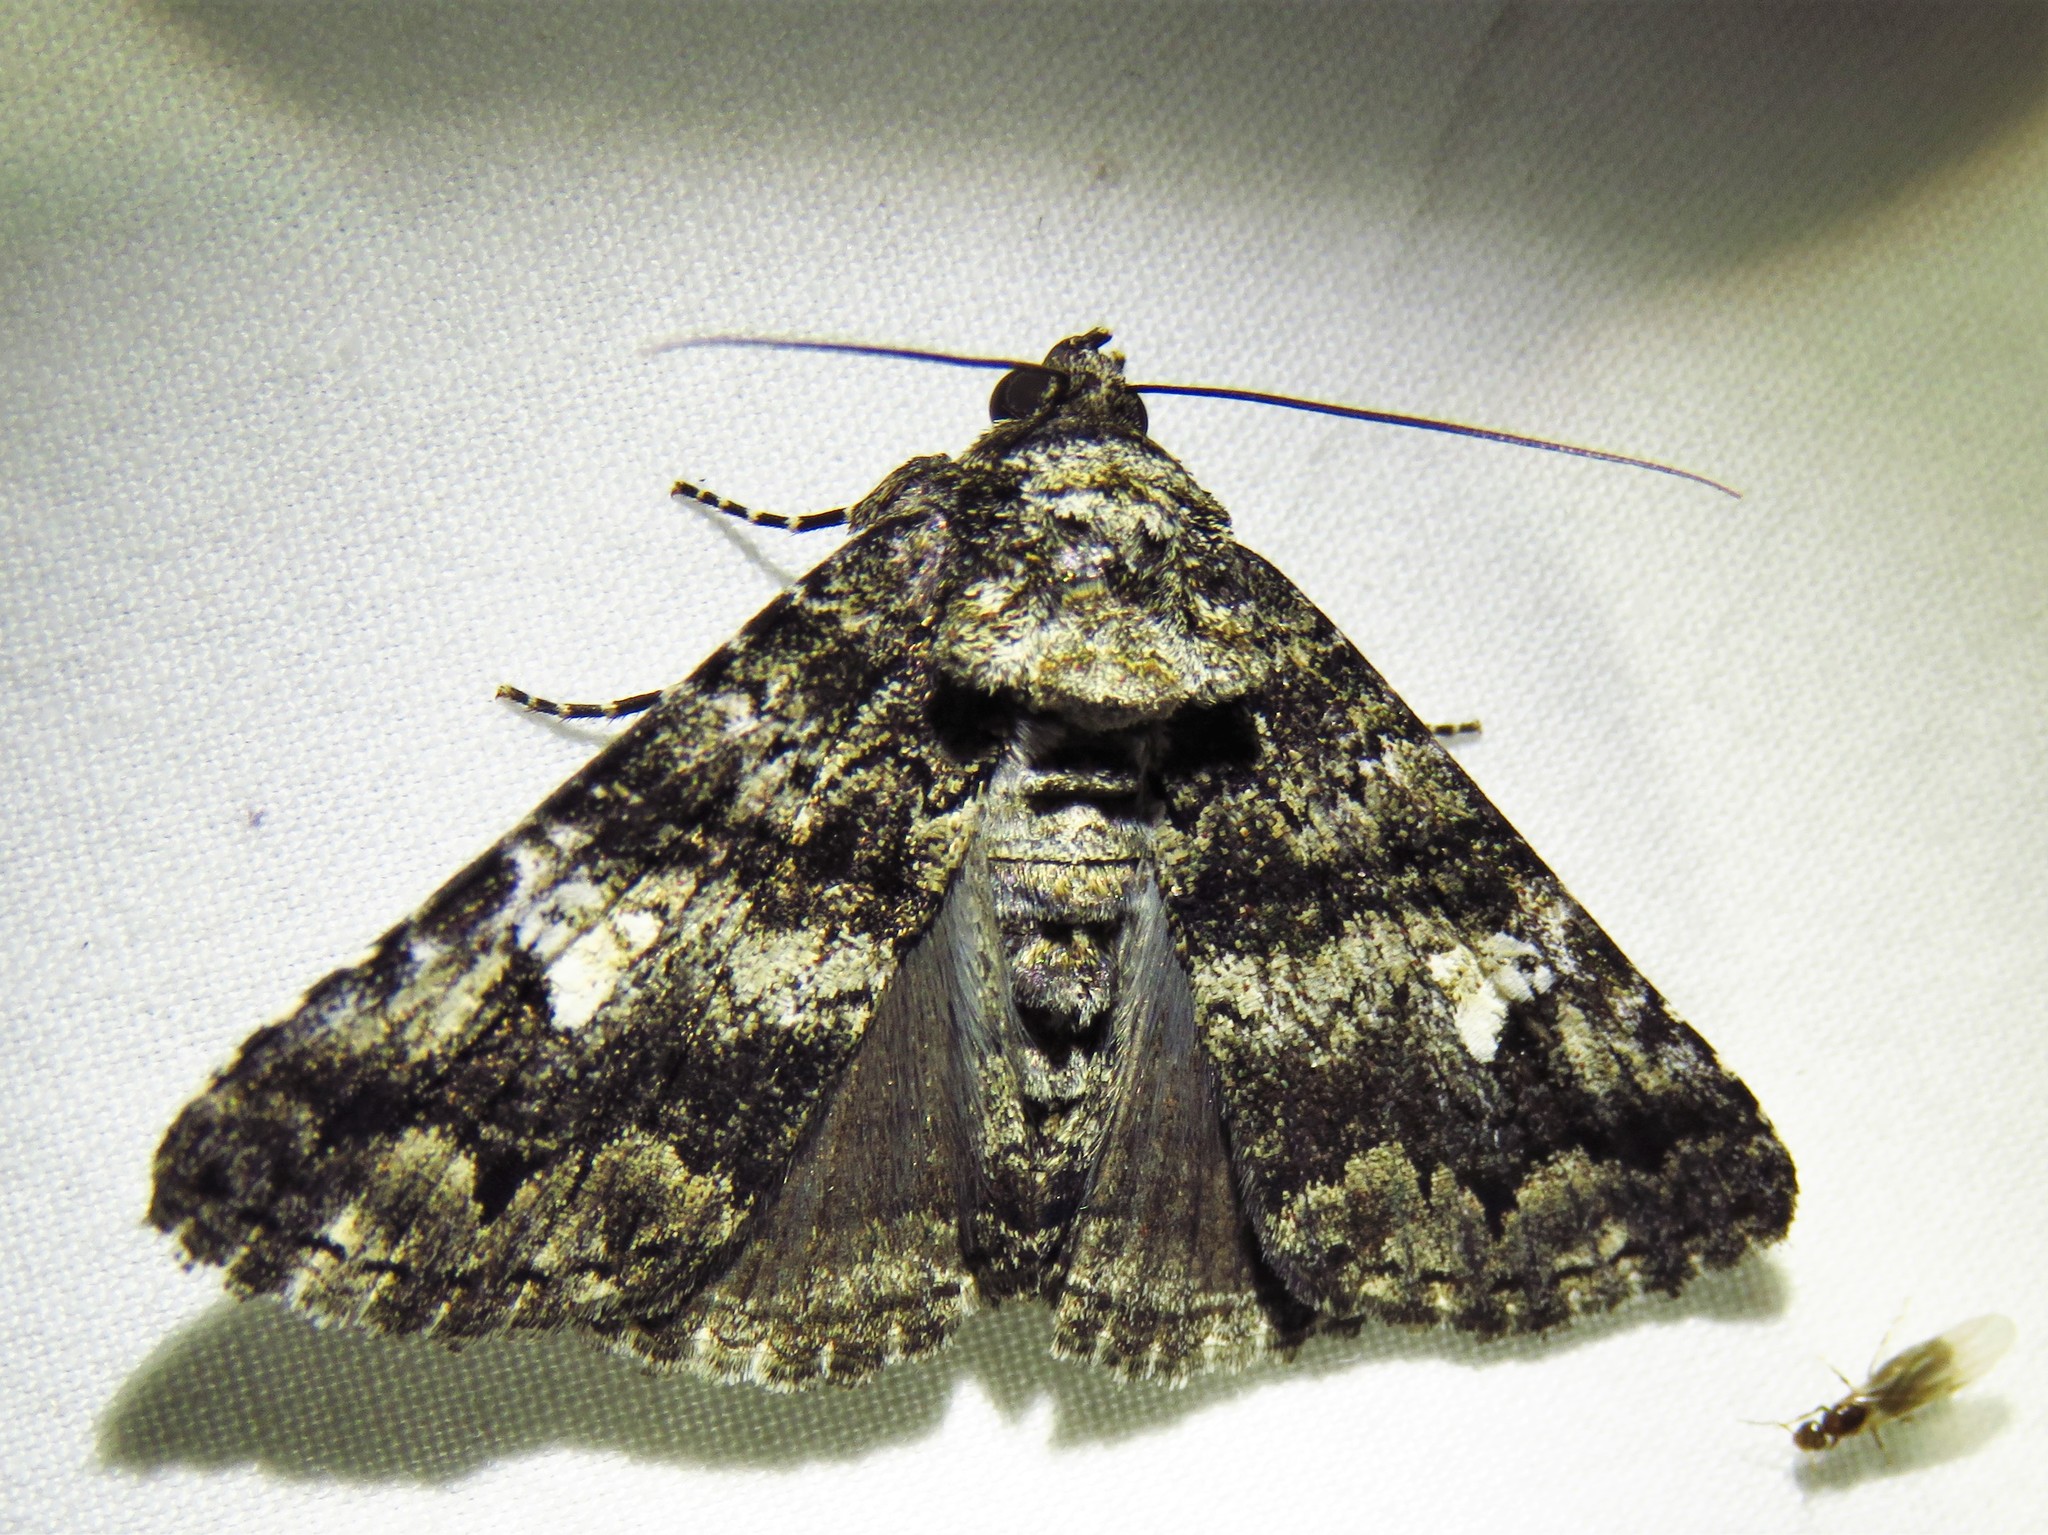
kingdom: Animalia
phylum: Arthropoda
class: Insecta
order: Lepidoptera
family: Erebidae
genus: Metria
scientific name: Metria amella
